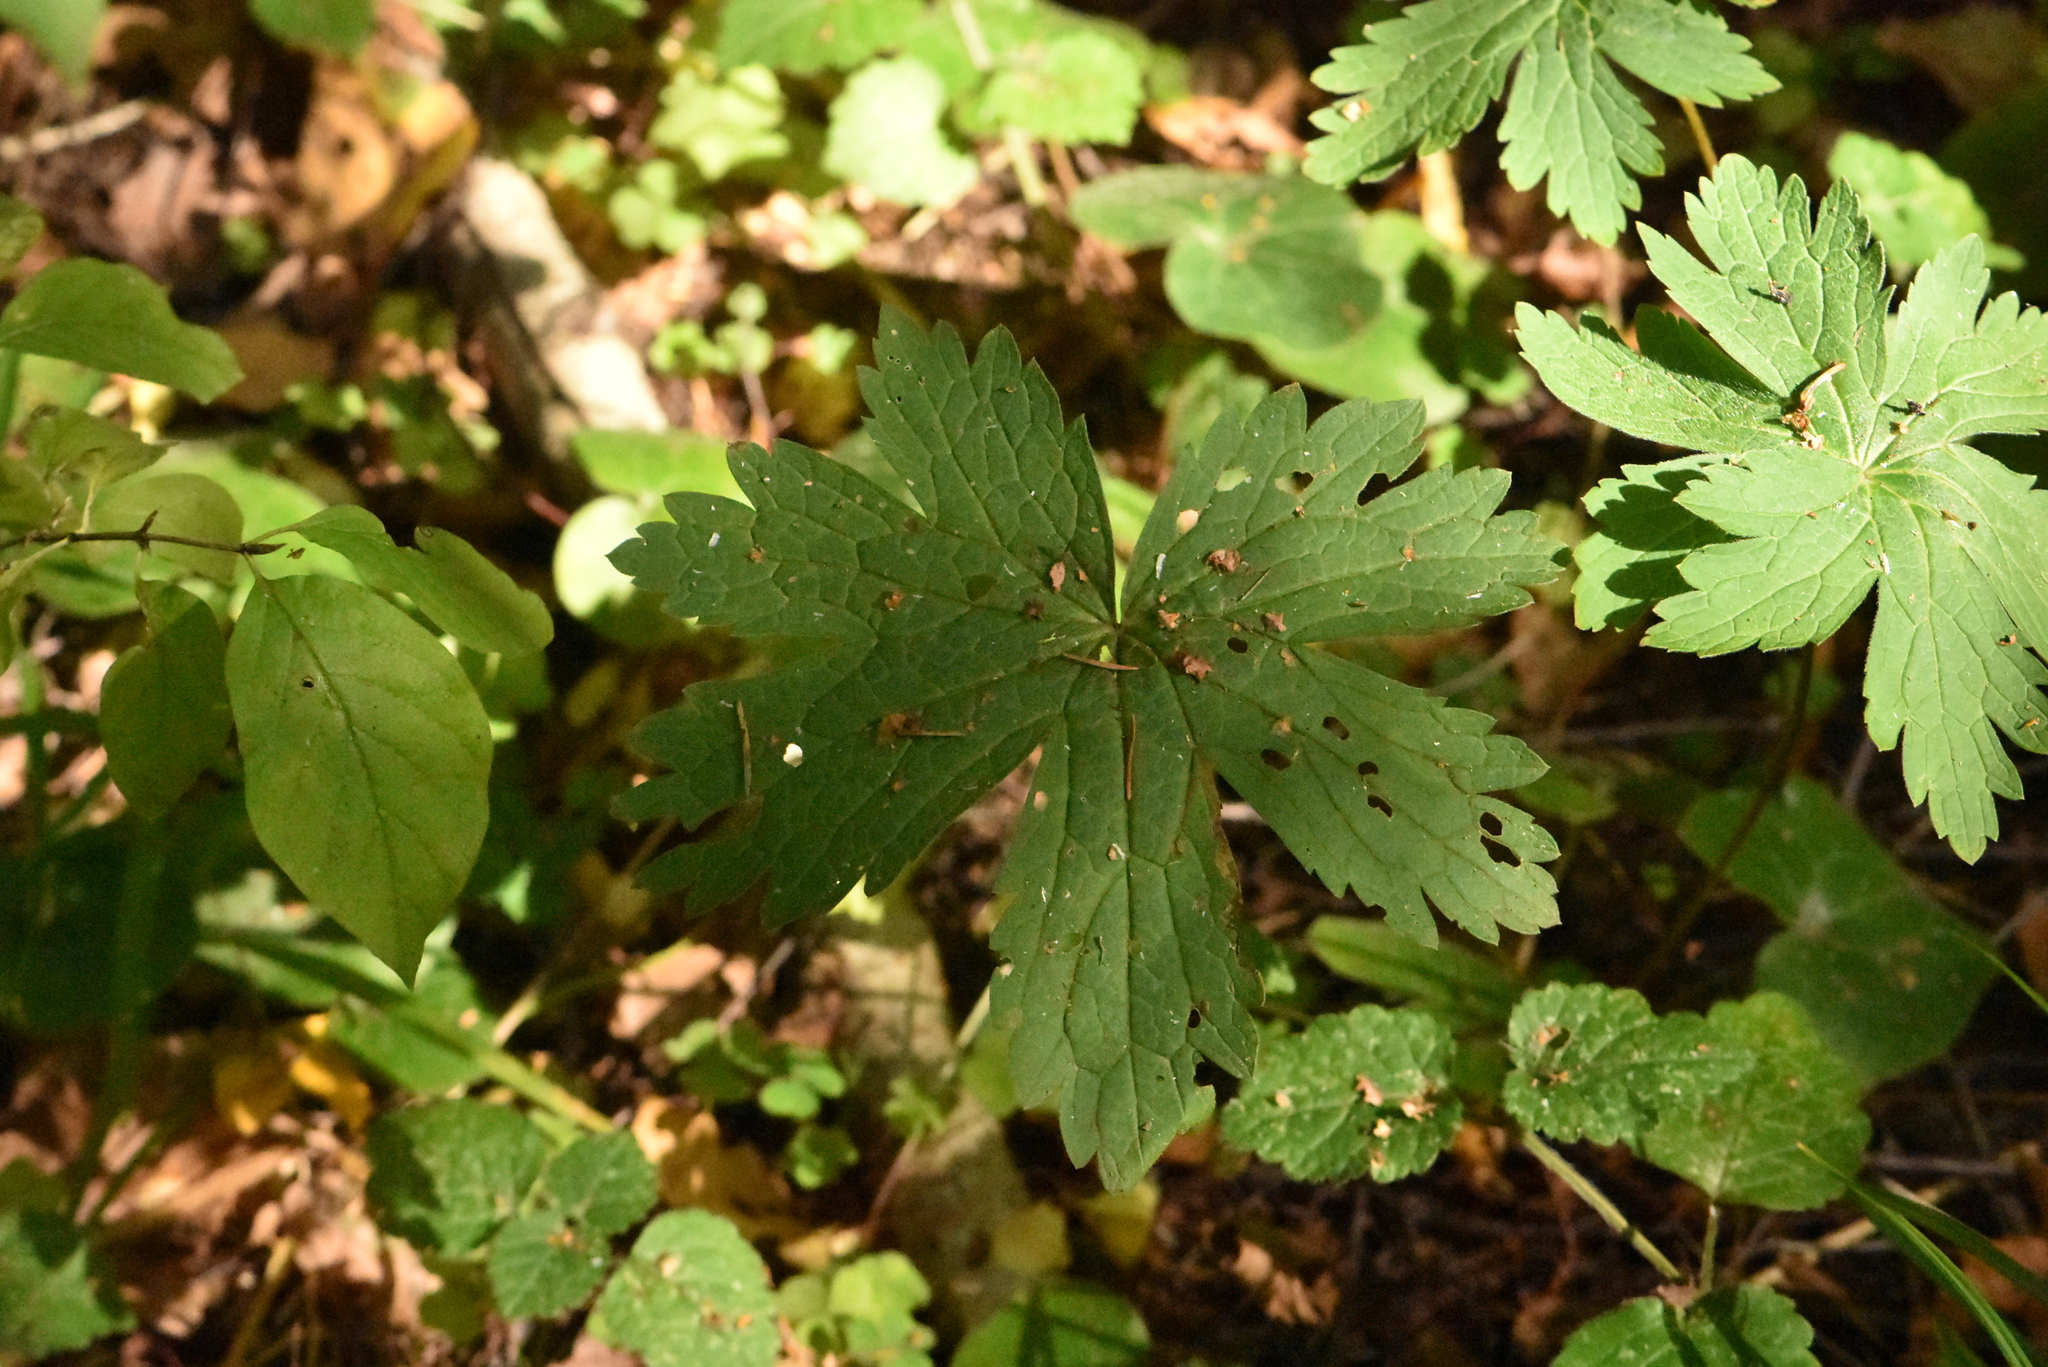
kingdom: Plantae
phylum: Tracheophyta
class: Magnoliopsida
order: Geraniales
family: Geraniaceae
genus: Geranium
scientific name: Geranium sylvaticum
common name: Wood crane's-bill
